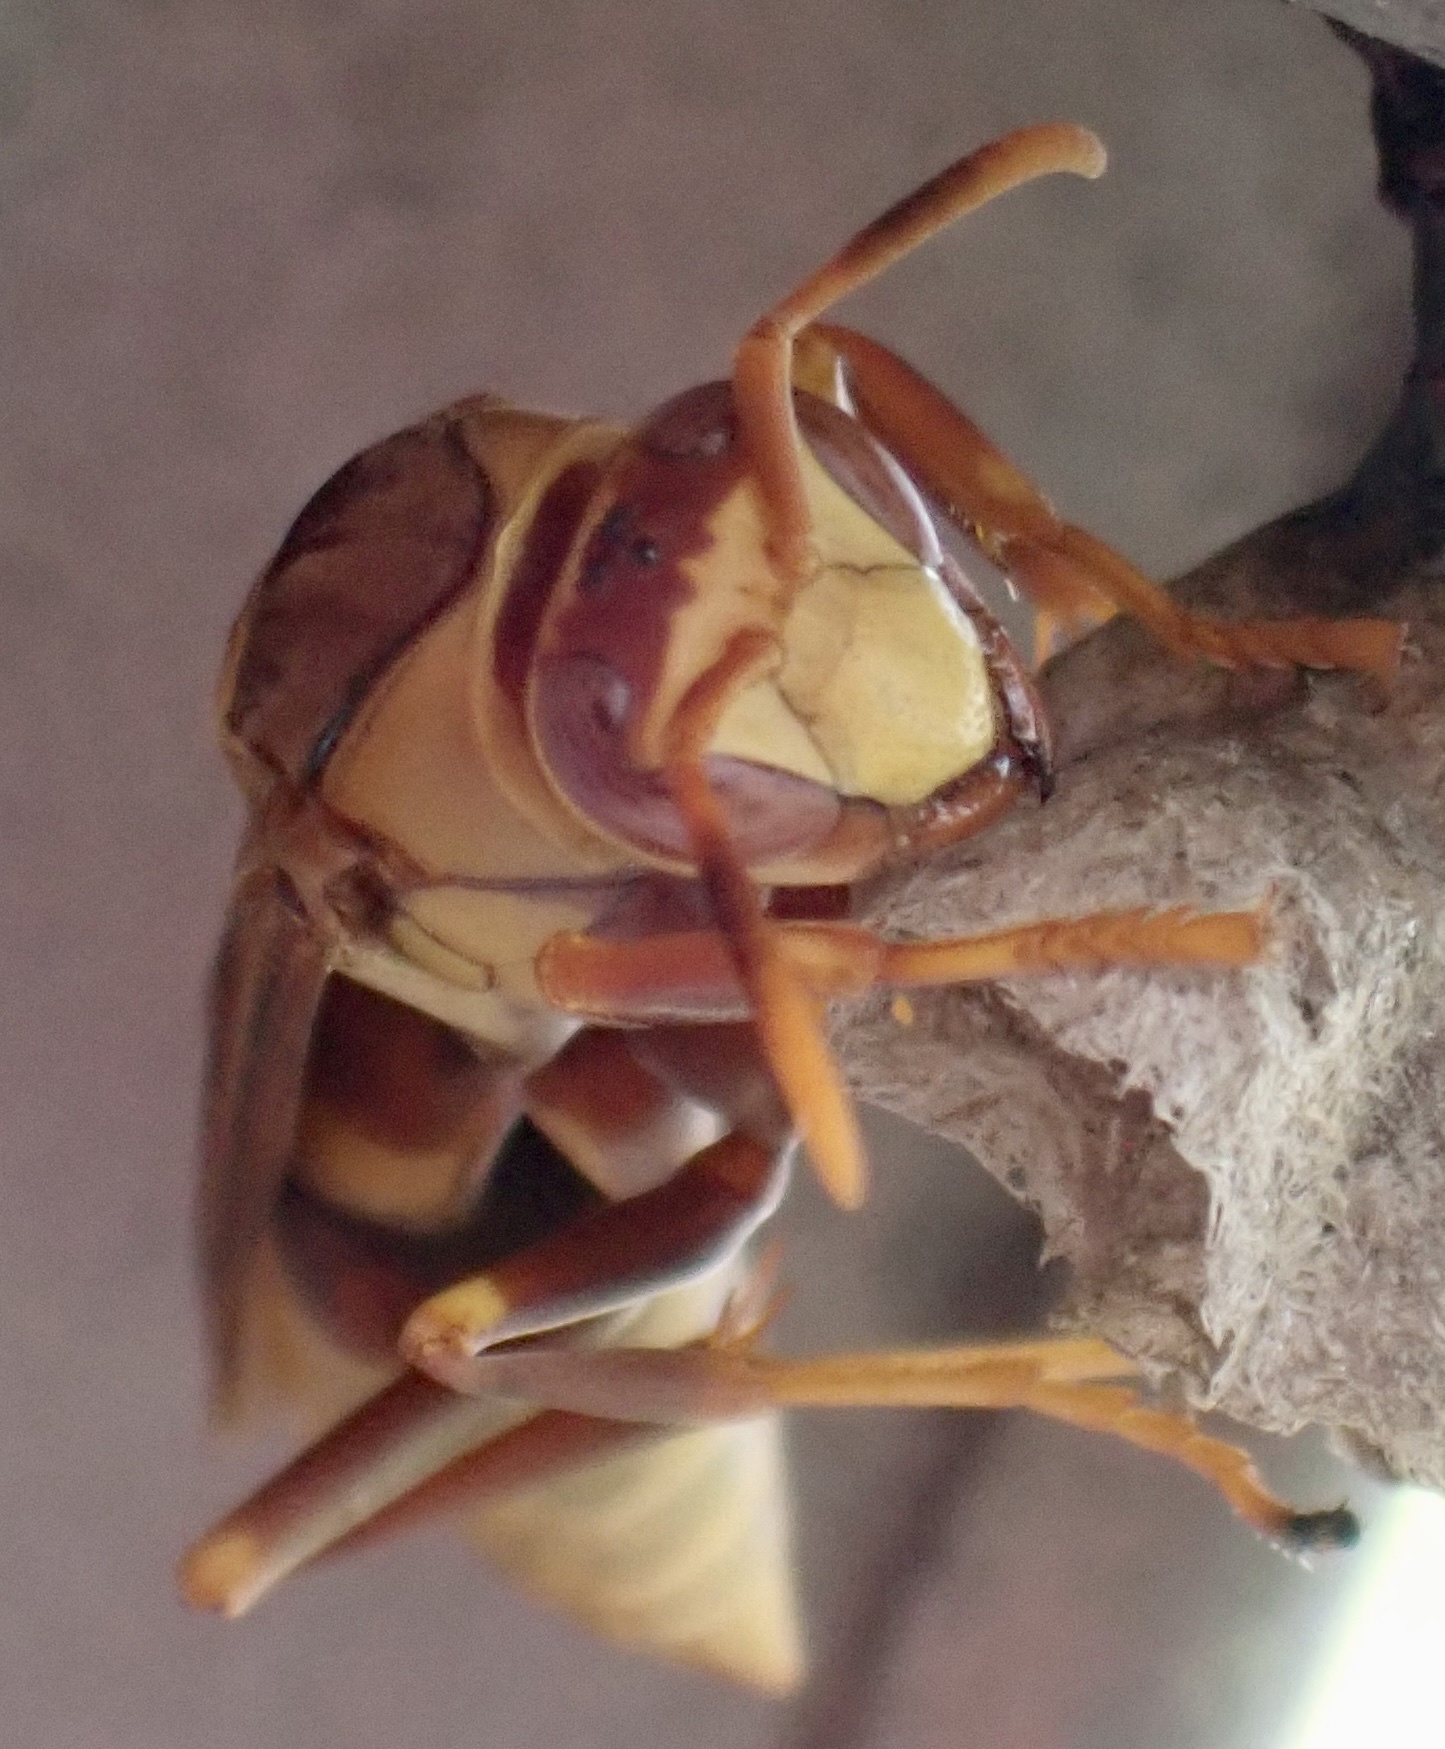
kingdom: Animalia
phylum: Arthropoda
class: Insecta
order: Hymenoptera
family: Eumenidae
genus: Polistes
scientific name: Polistes major
